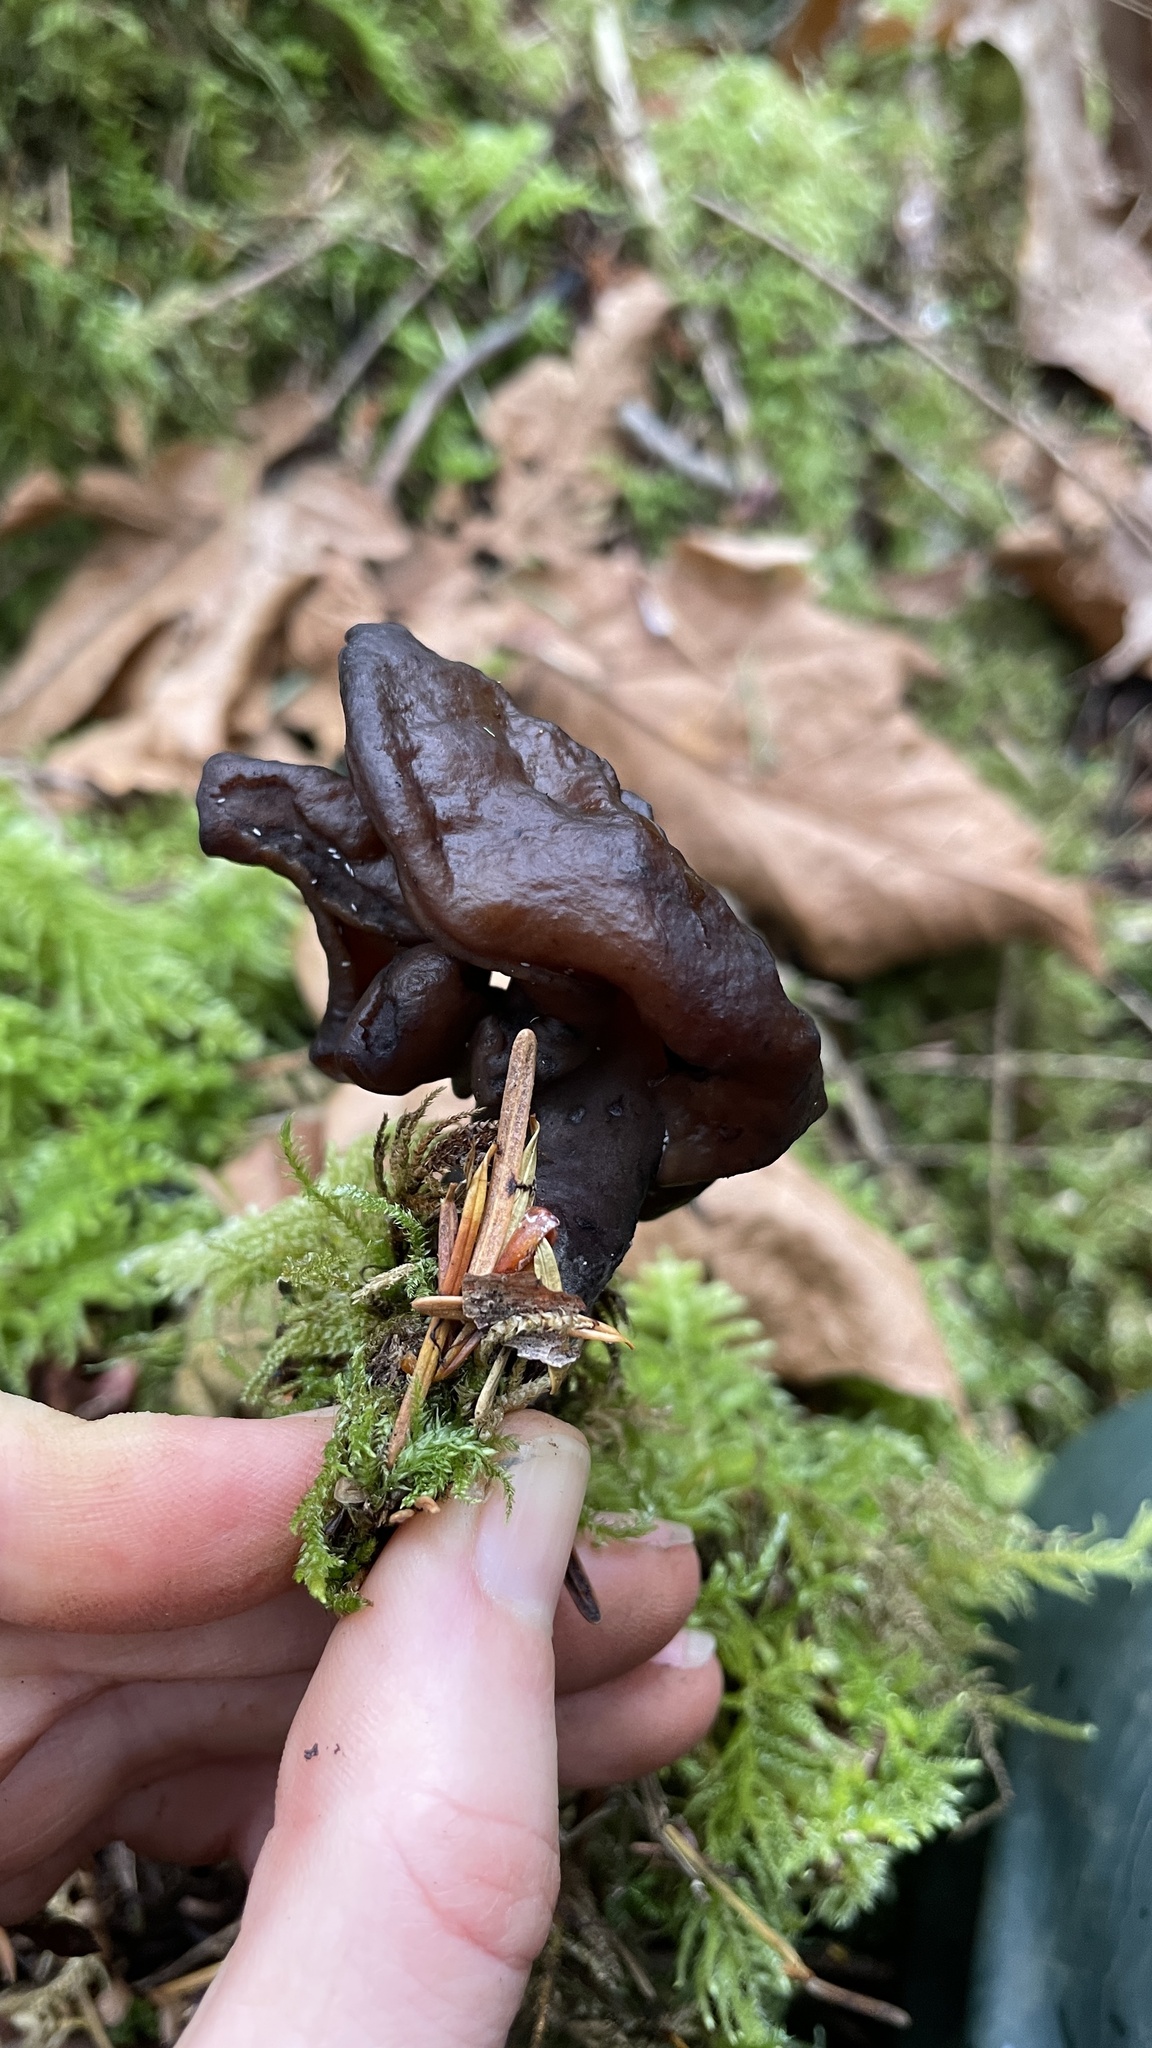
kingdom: Fungi
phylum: Ascomycota
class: Pezizomycetes
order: Pezizales
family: Discinaceae
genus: Gyromitra
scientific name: Gyromitra infula
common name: Pouched false morel
